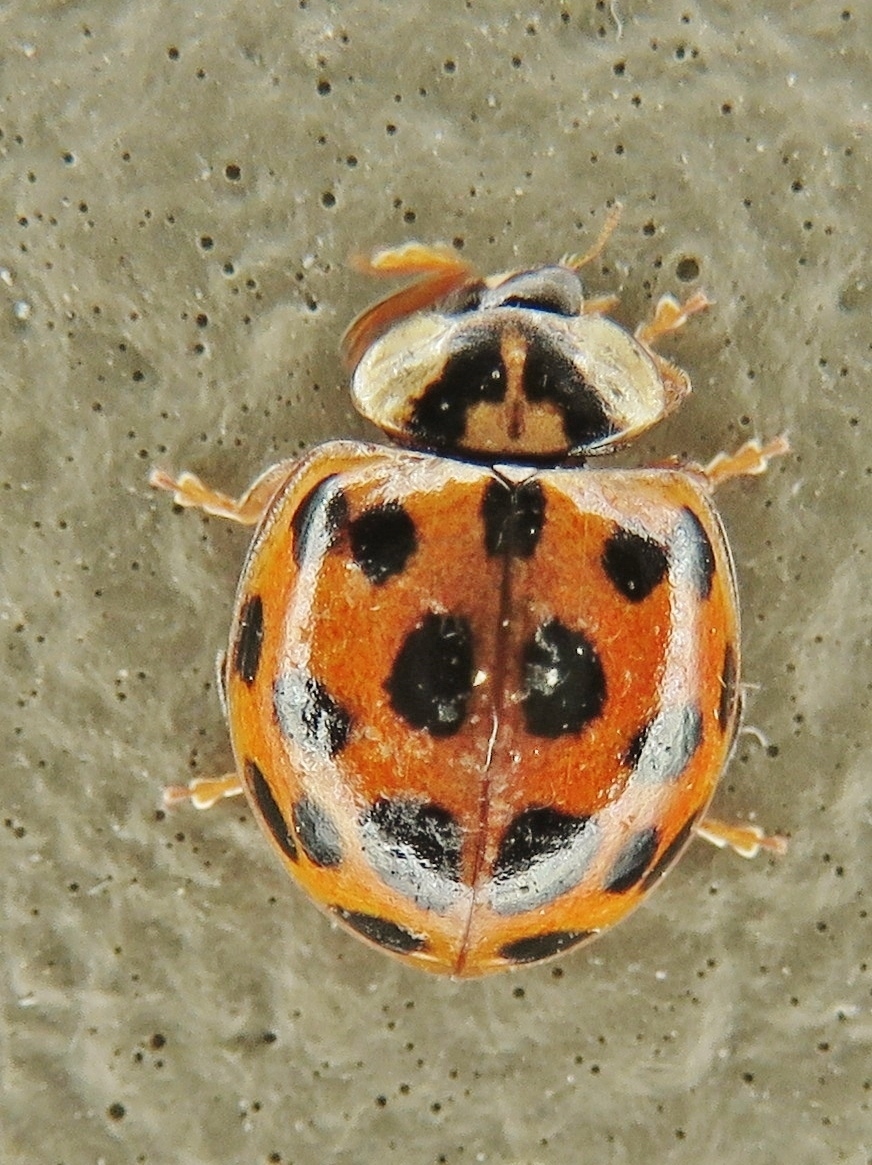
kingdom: Animalia
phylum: Arthropoda
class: Insecta
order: Coleoptera
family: Coccinellidae
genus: Harmonia
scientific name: Harmonia axyridis
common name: Harlequin ladybird
